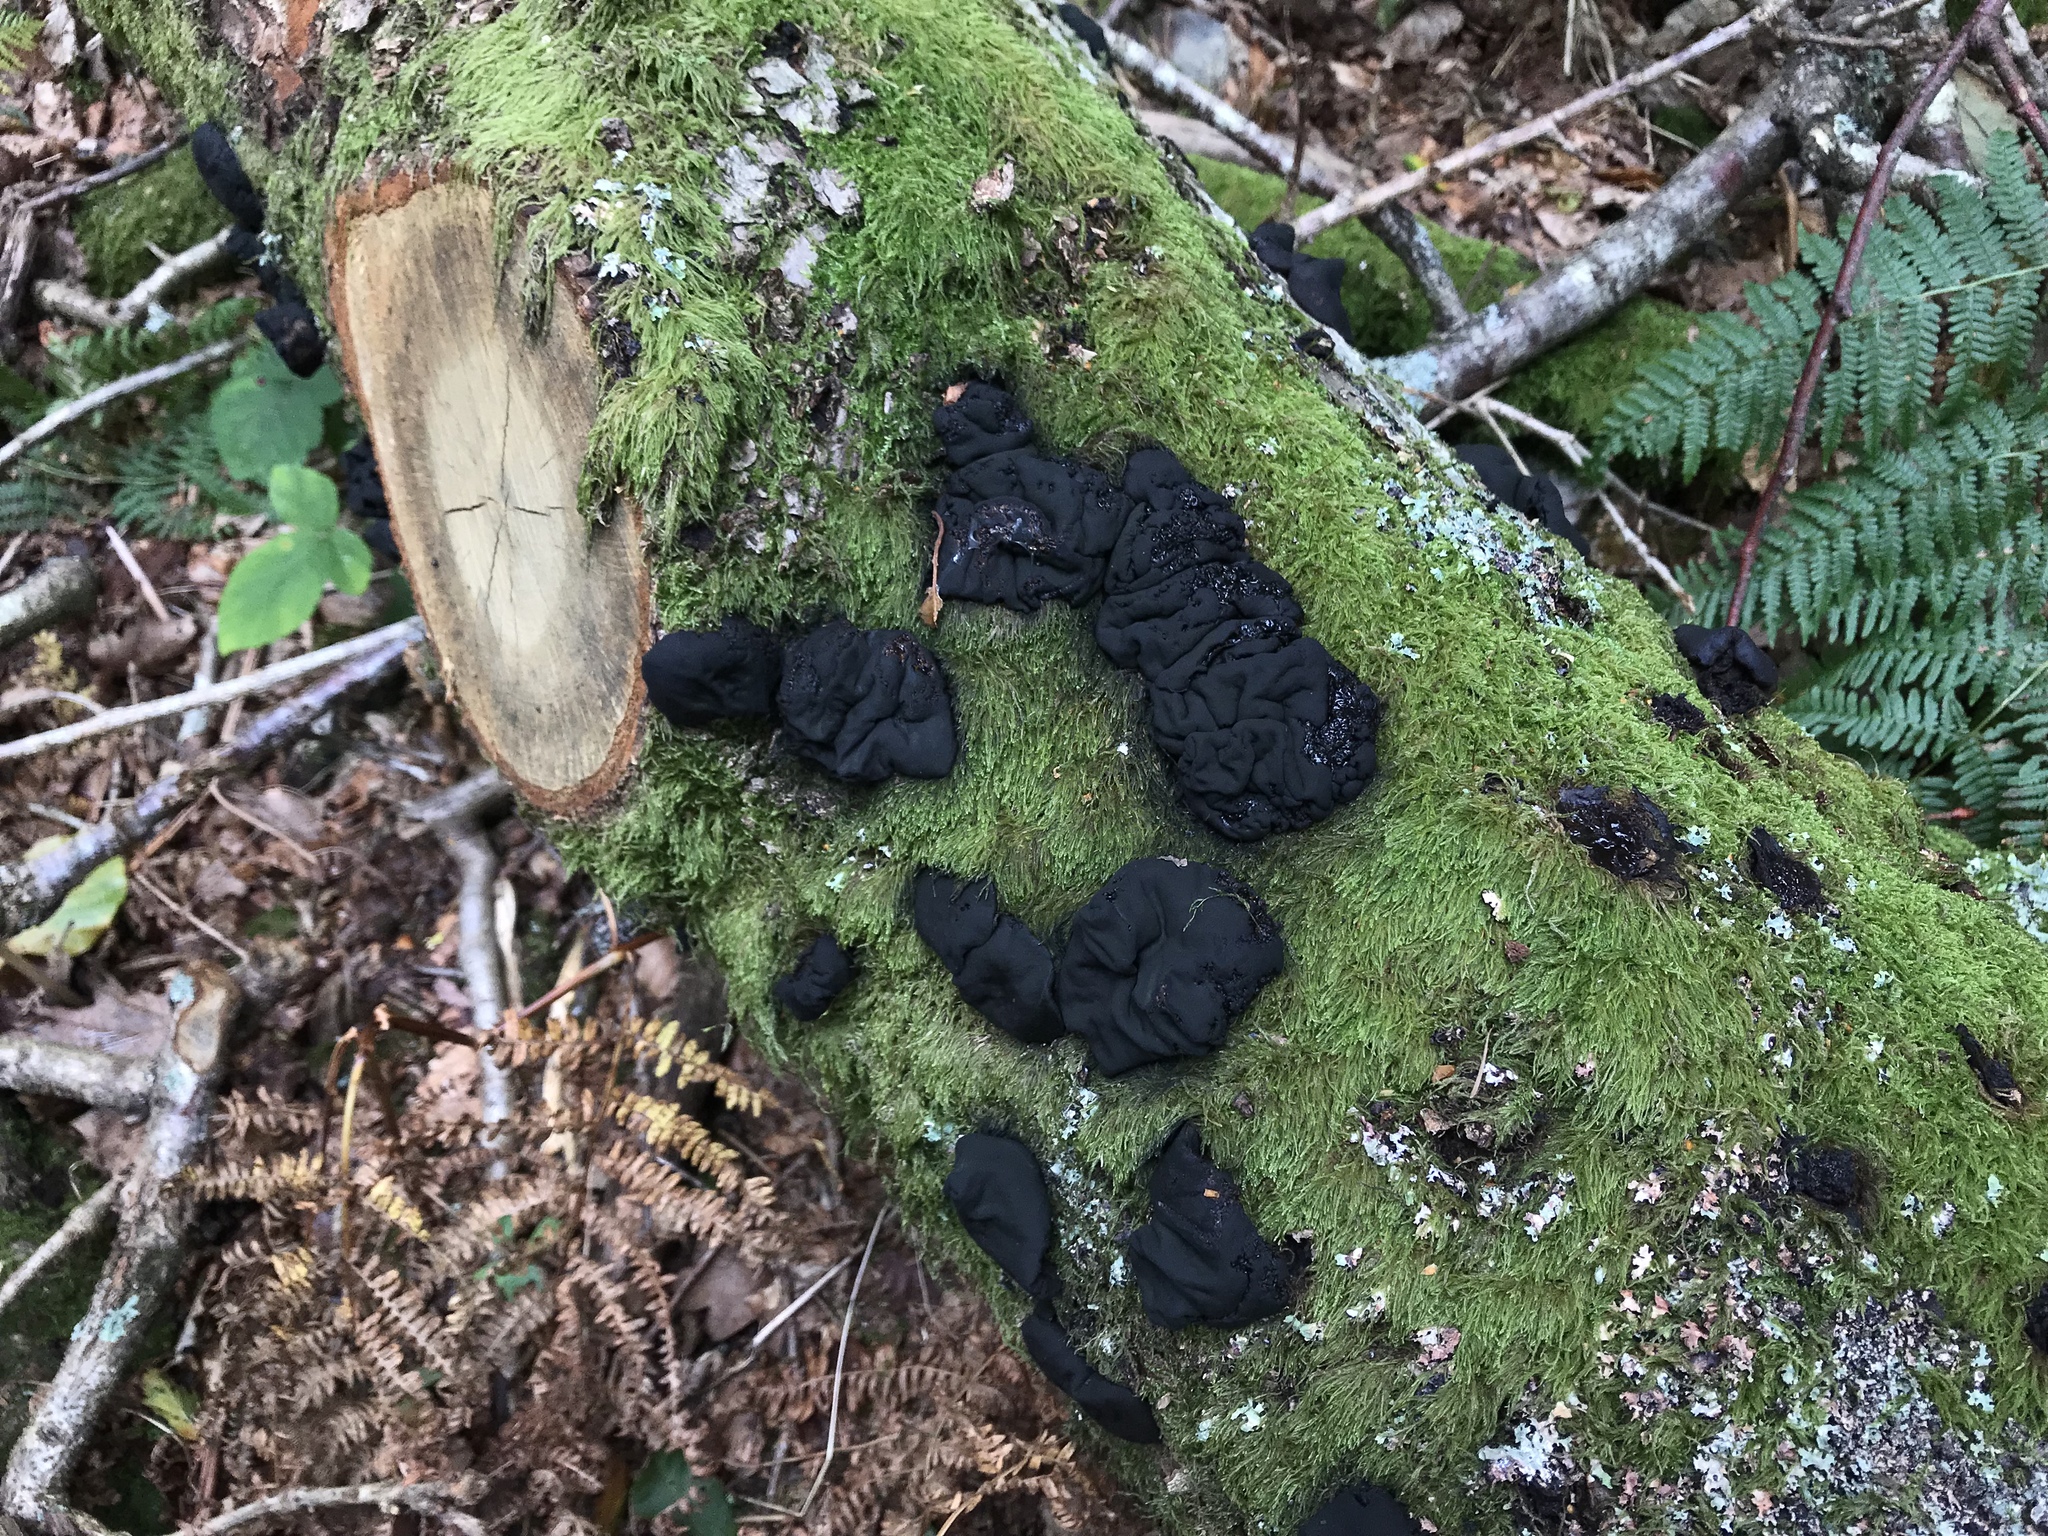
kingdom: Fungi
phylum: Basidiomycota
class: Agaricomycetes
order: Auriculariales
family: Auriculariaceae
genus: Exidia
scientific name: Exidia glandulosa
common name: Witches' butter
